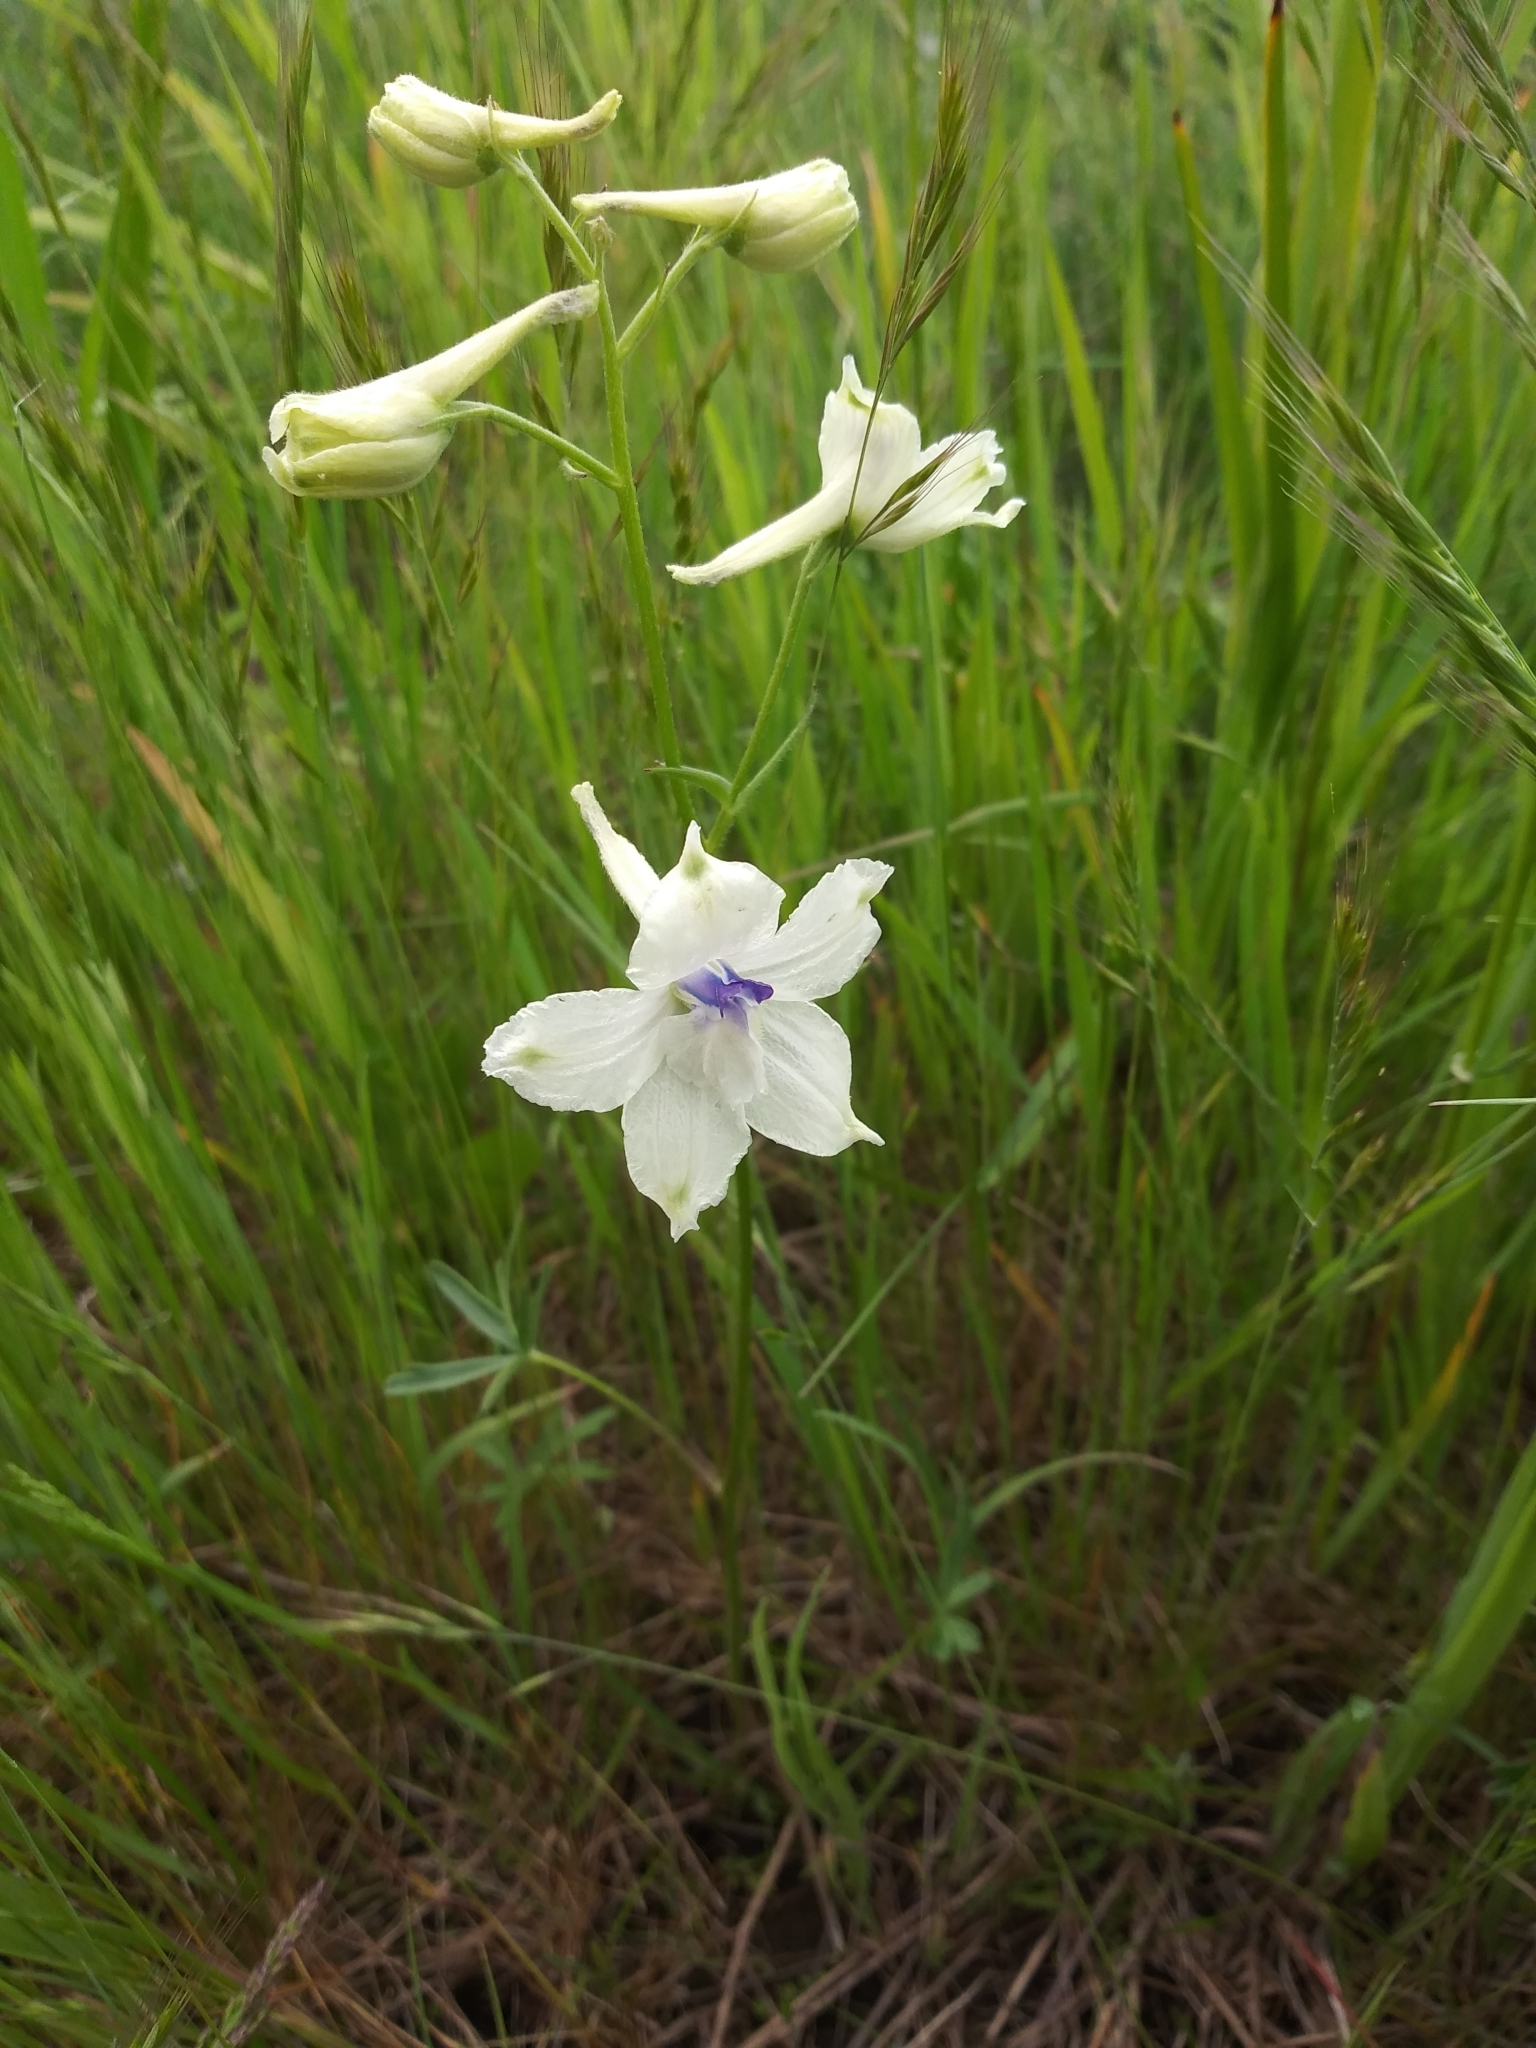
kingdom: Plantae
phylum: Tracheophyta
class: Magnoliopsida
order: Ranunculales
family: Ranunculaceae
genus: Delphinium
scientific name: Delphinium pavonaceum
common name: Peacock larkspur
